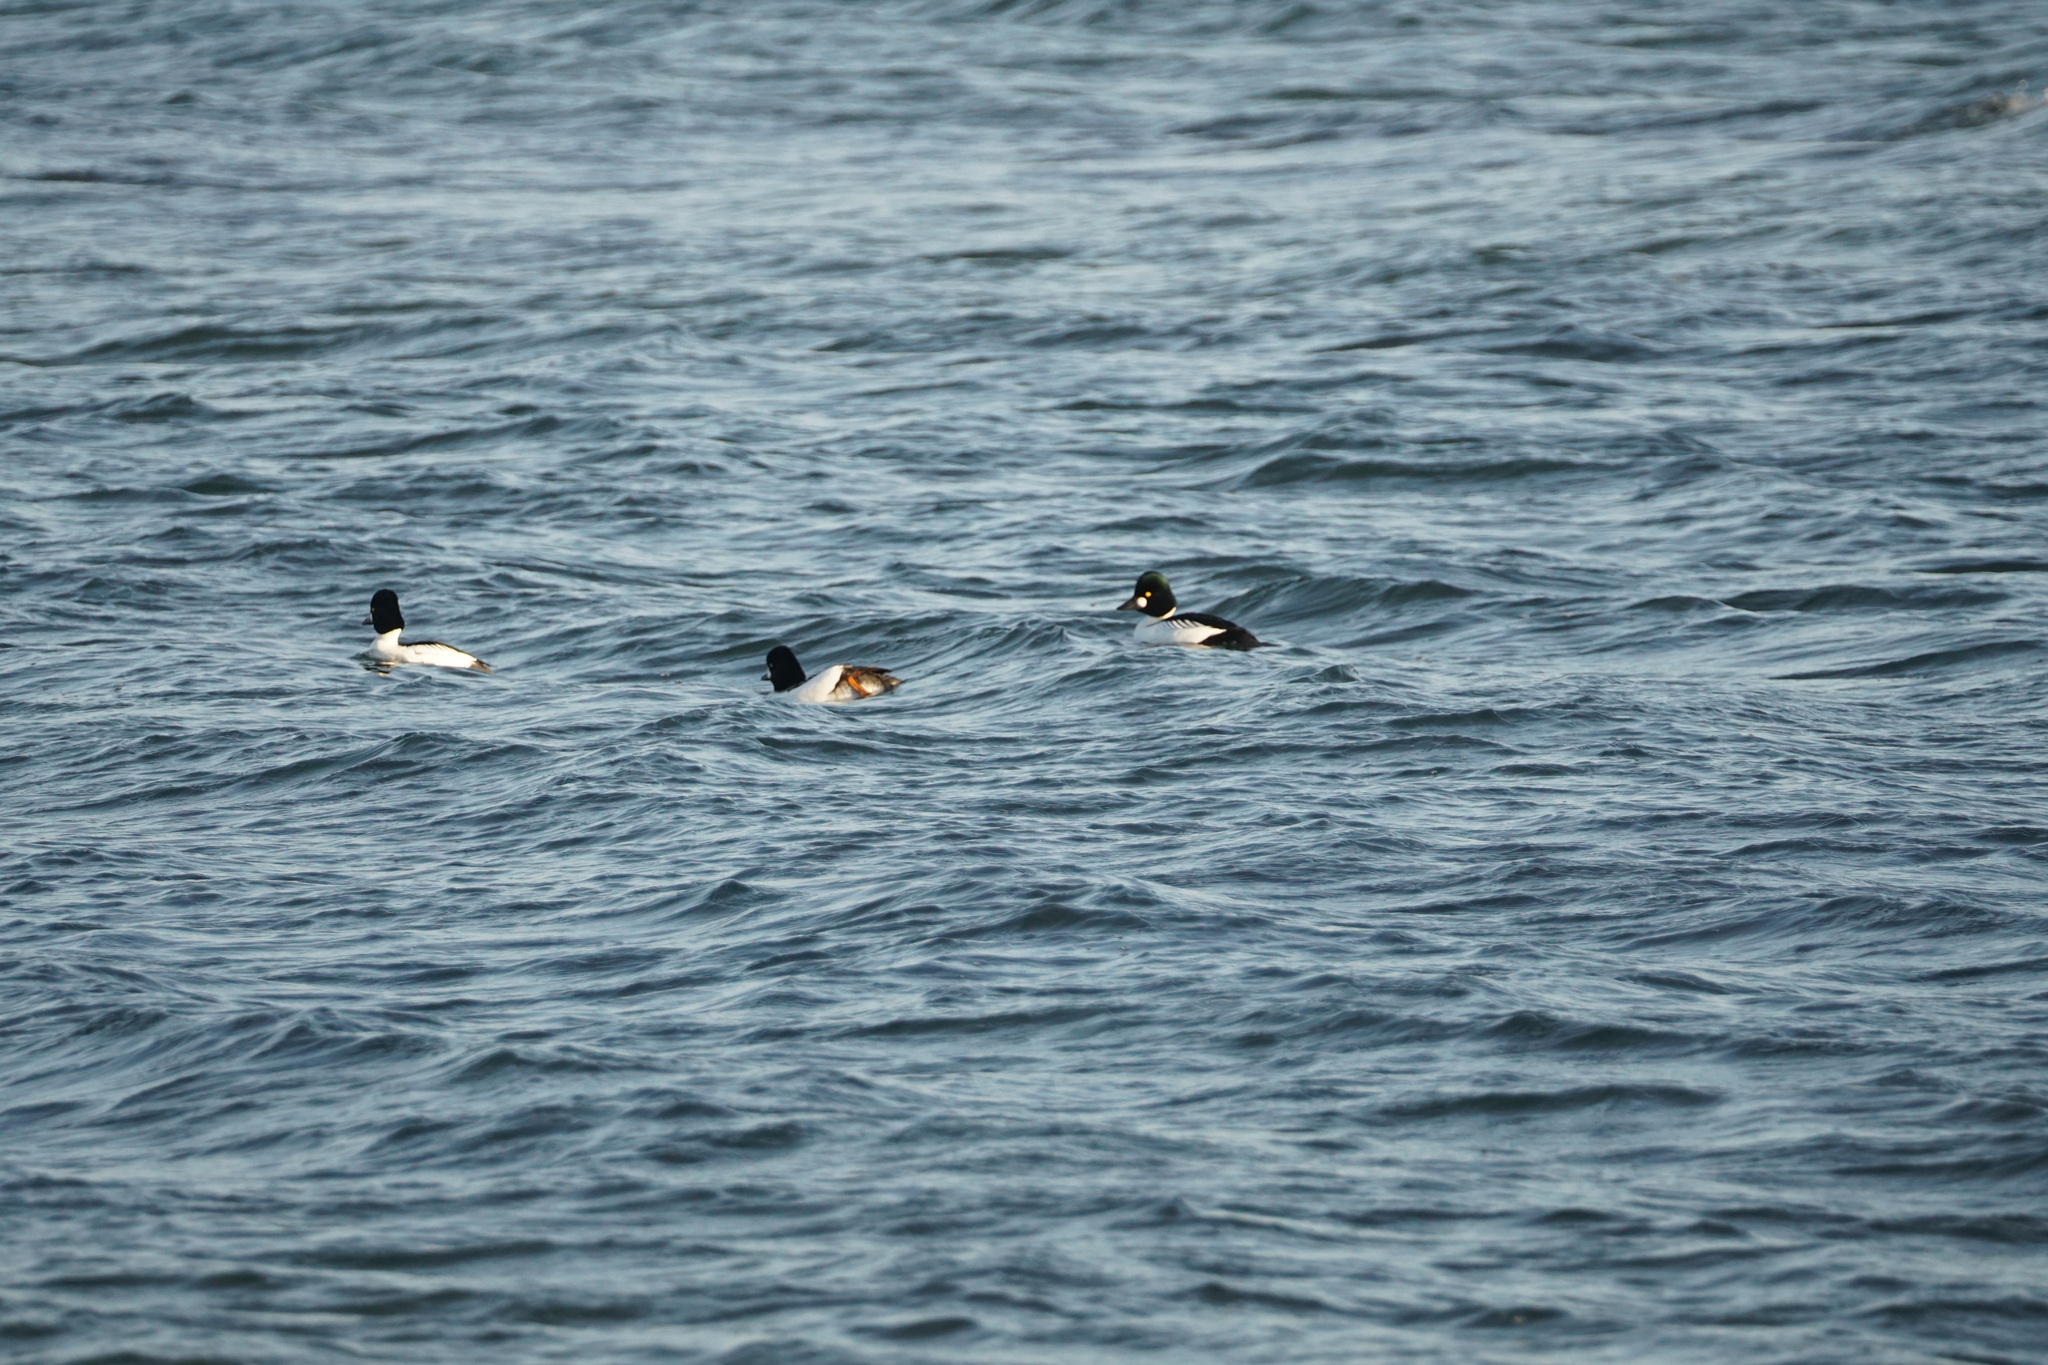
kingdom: Animalia
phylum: Chordata
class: Aves
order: Anseriformes
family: Anatidae
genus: Bucephala
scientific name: Bucephala clangula
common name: Common goldeneye
